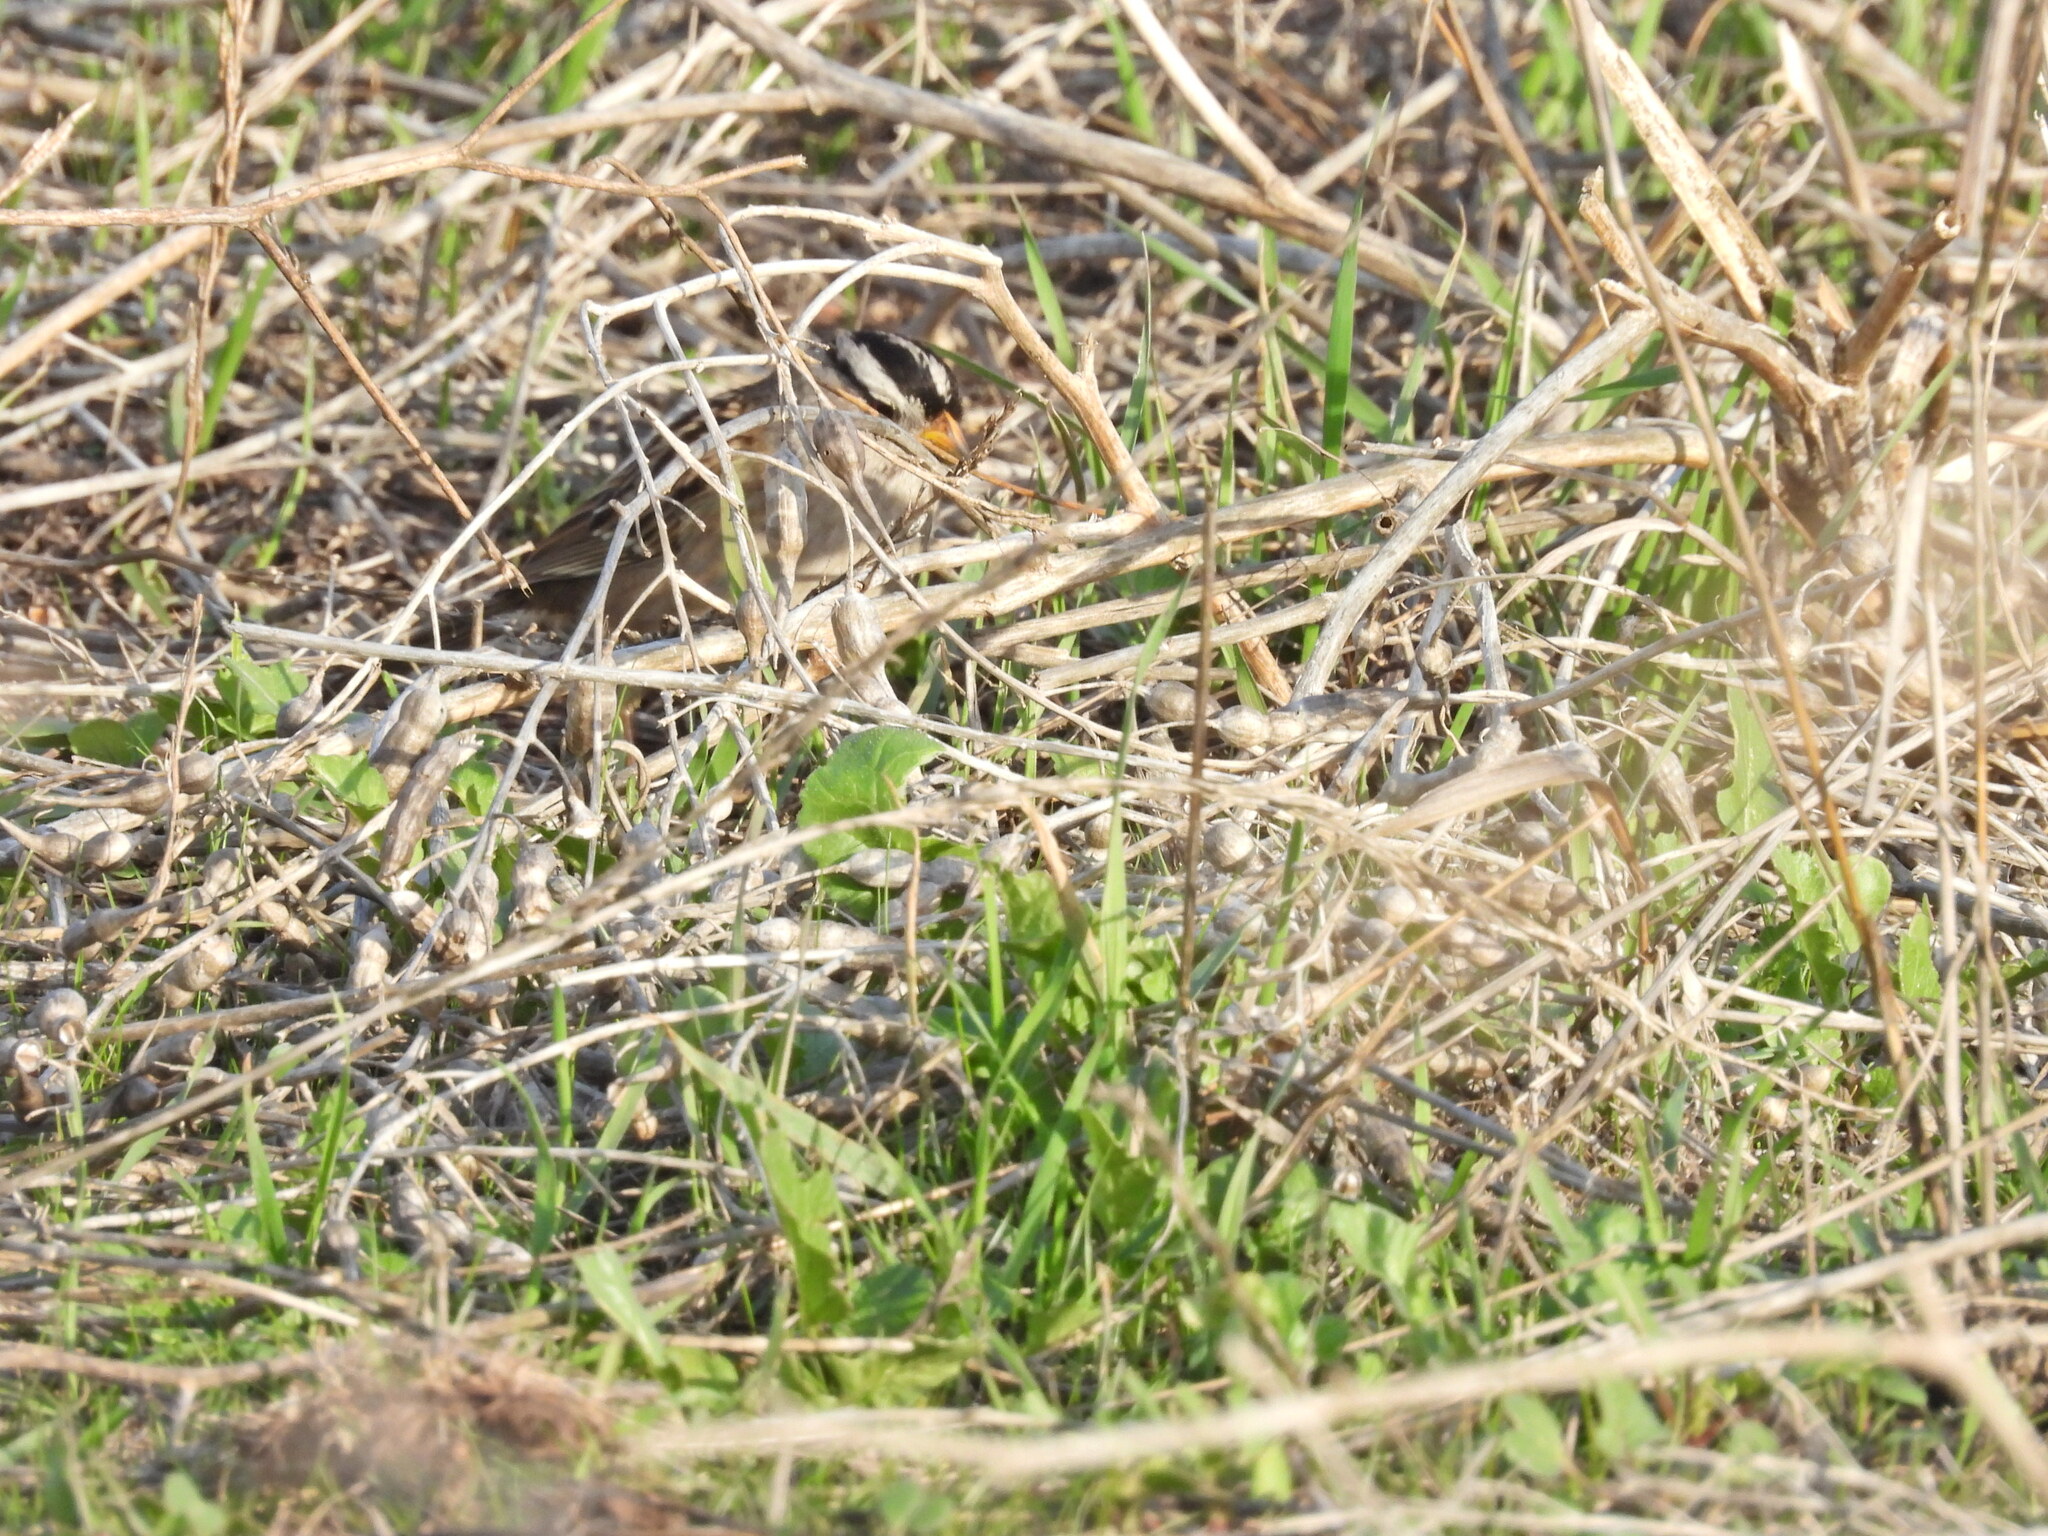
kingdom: Animalia
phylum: Chordata
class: Aves
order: Passeriformes
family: Passerellidae
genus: Zonotrichia
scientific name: Zonotrichia leucophrys
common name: White-crowned sparrow
